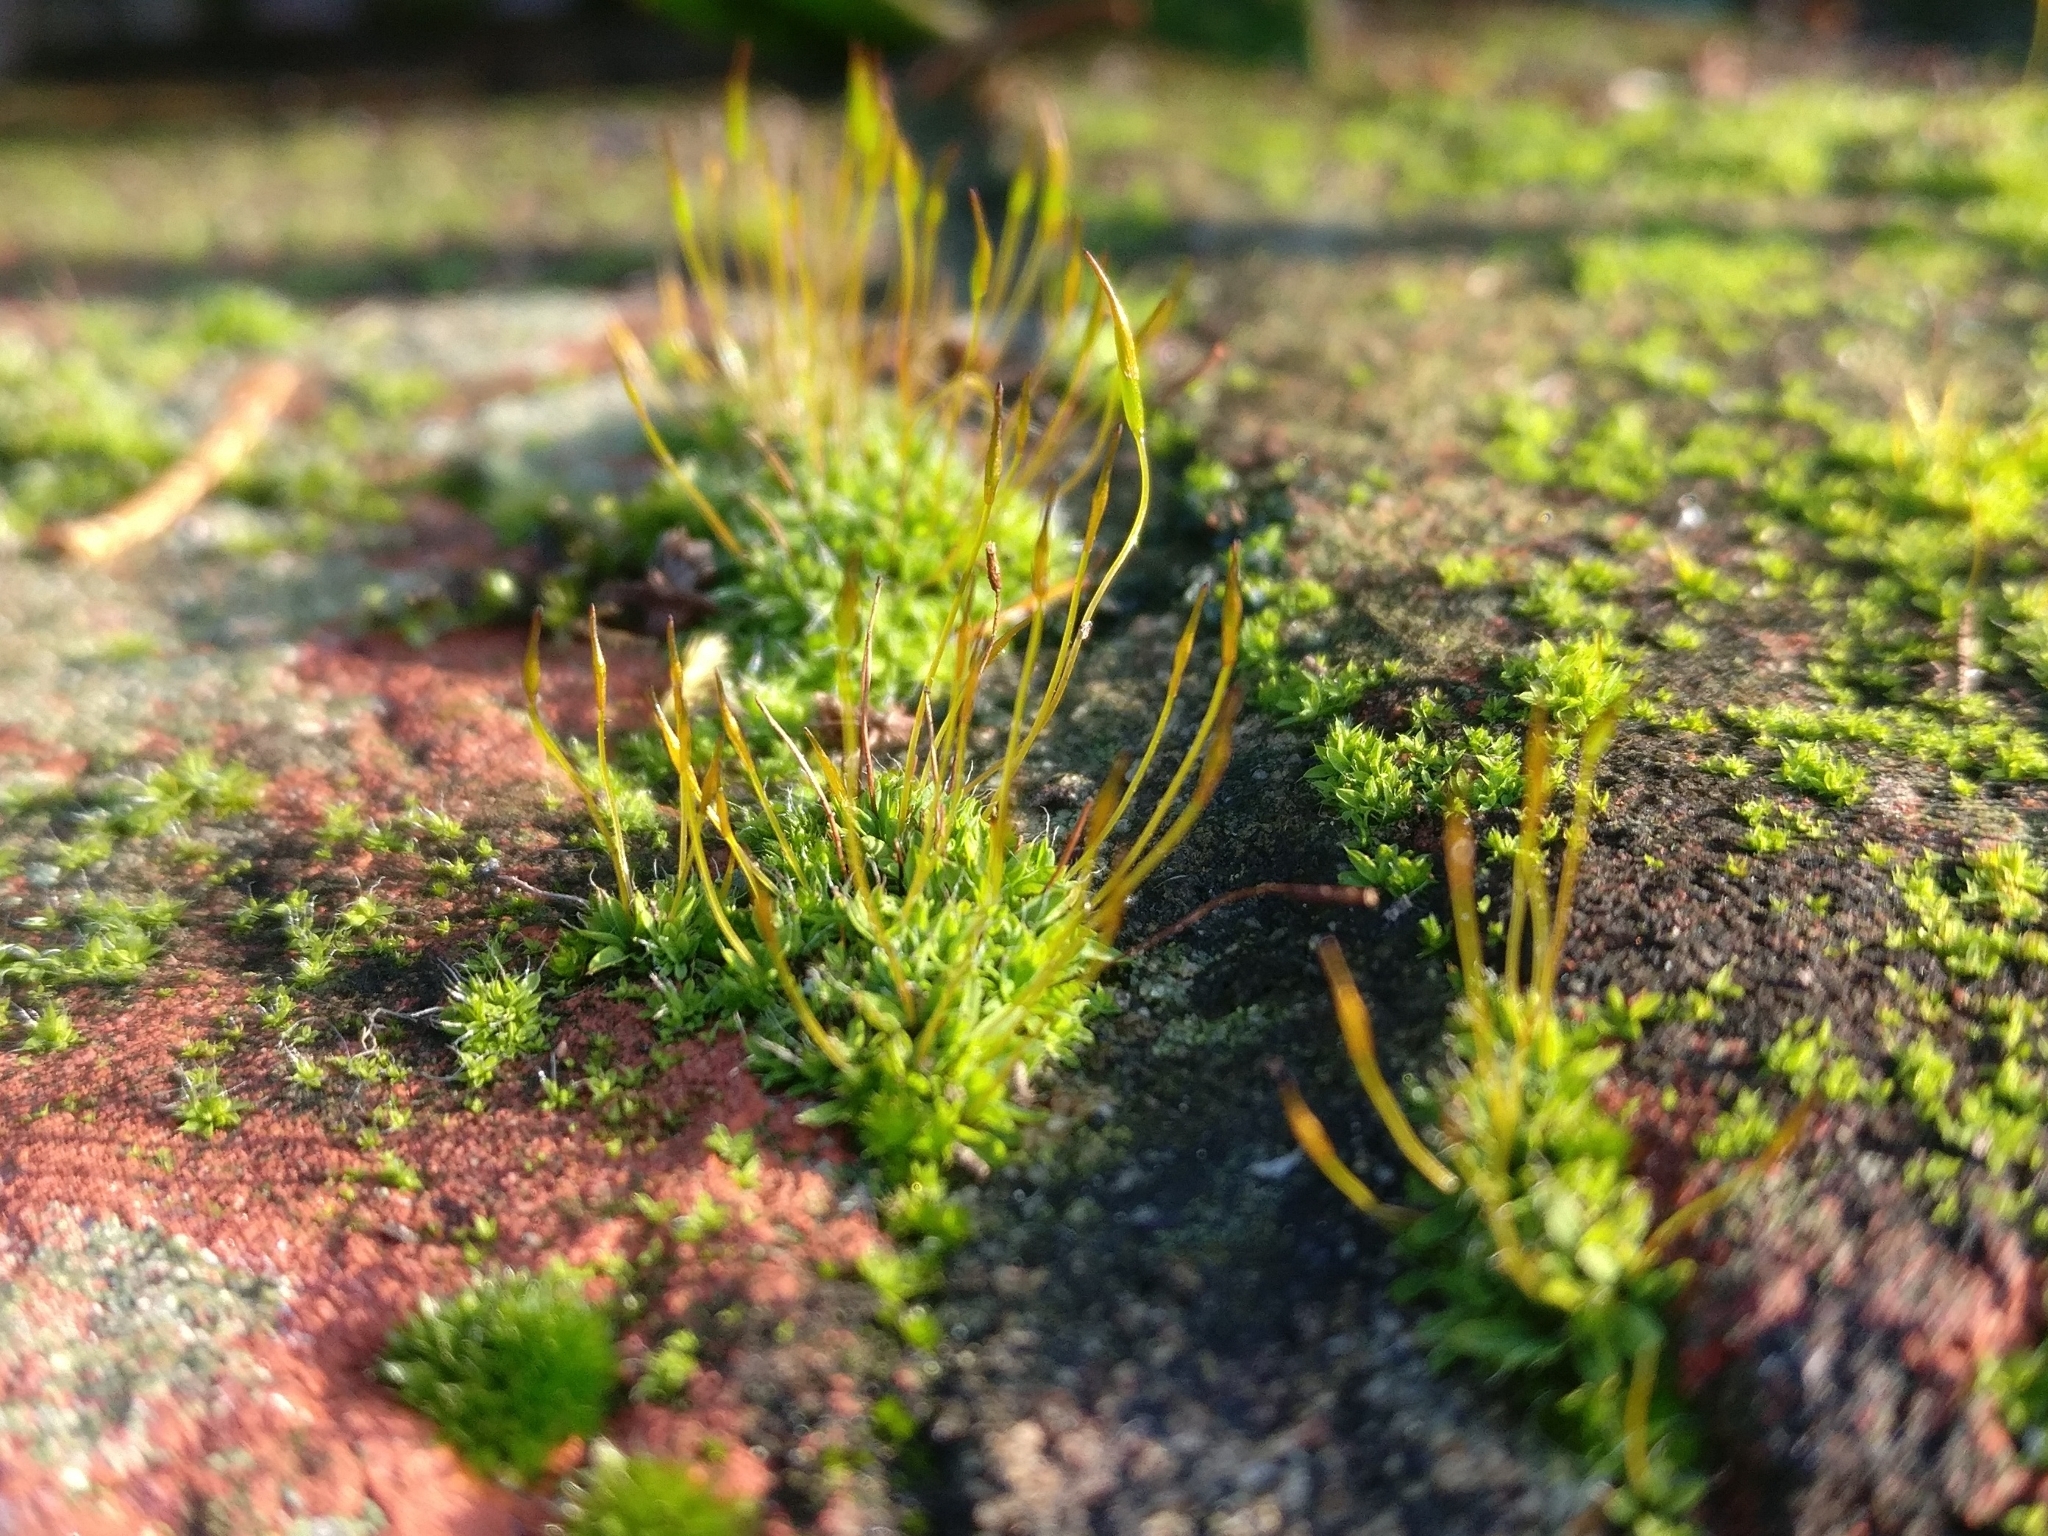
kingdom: Plantae
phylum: Bryophyta
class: Bryopsida
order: Pottiales
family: Pottiaceae
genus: Tortula
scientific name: Tortula muralis
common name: Wall screw-moss
